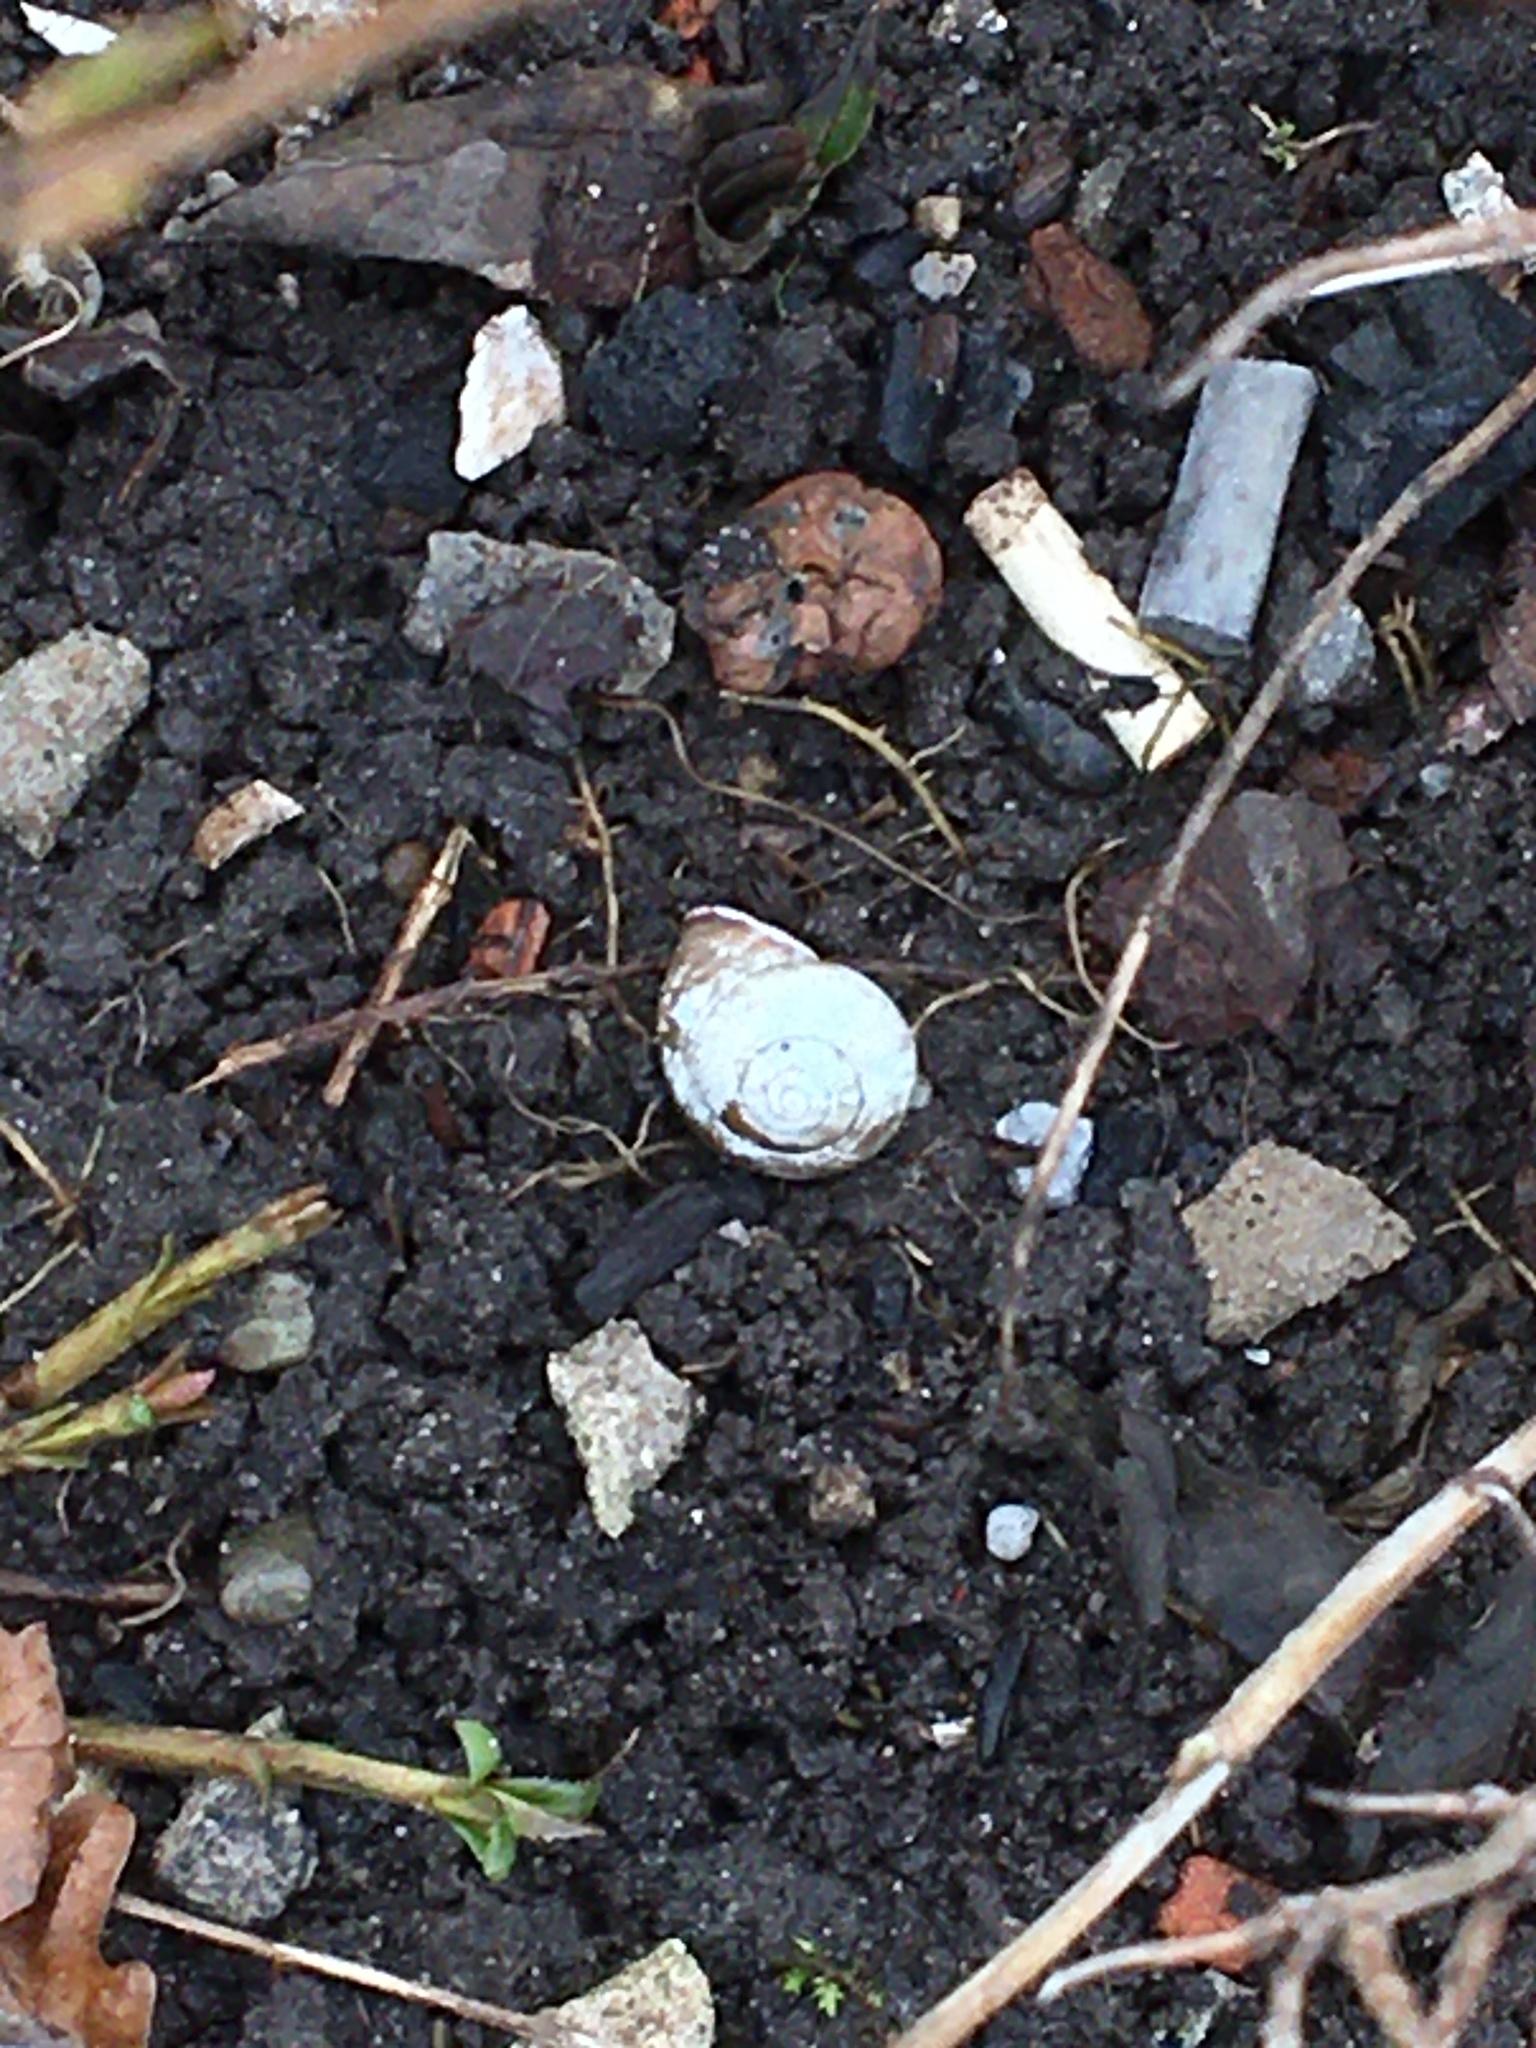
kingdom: Animalia
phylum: Mollusca
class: Gastropoda
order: Stylommatophora
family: Helicidae
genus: Cepaea
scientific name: Cepaea nemoralis
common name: Grovesnail
